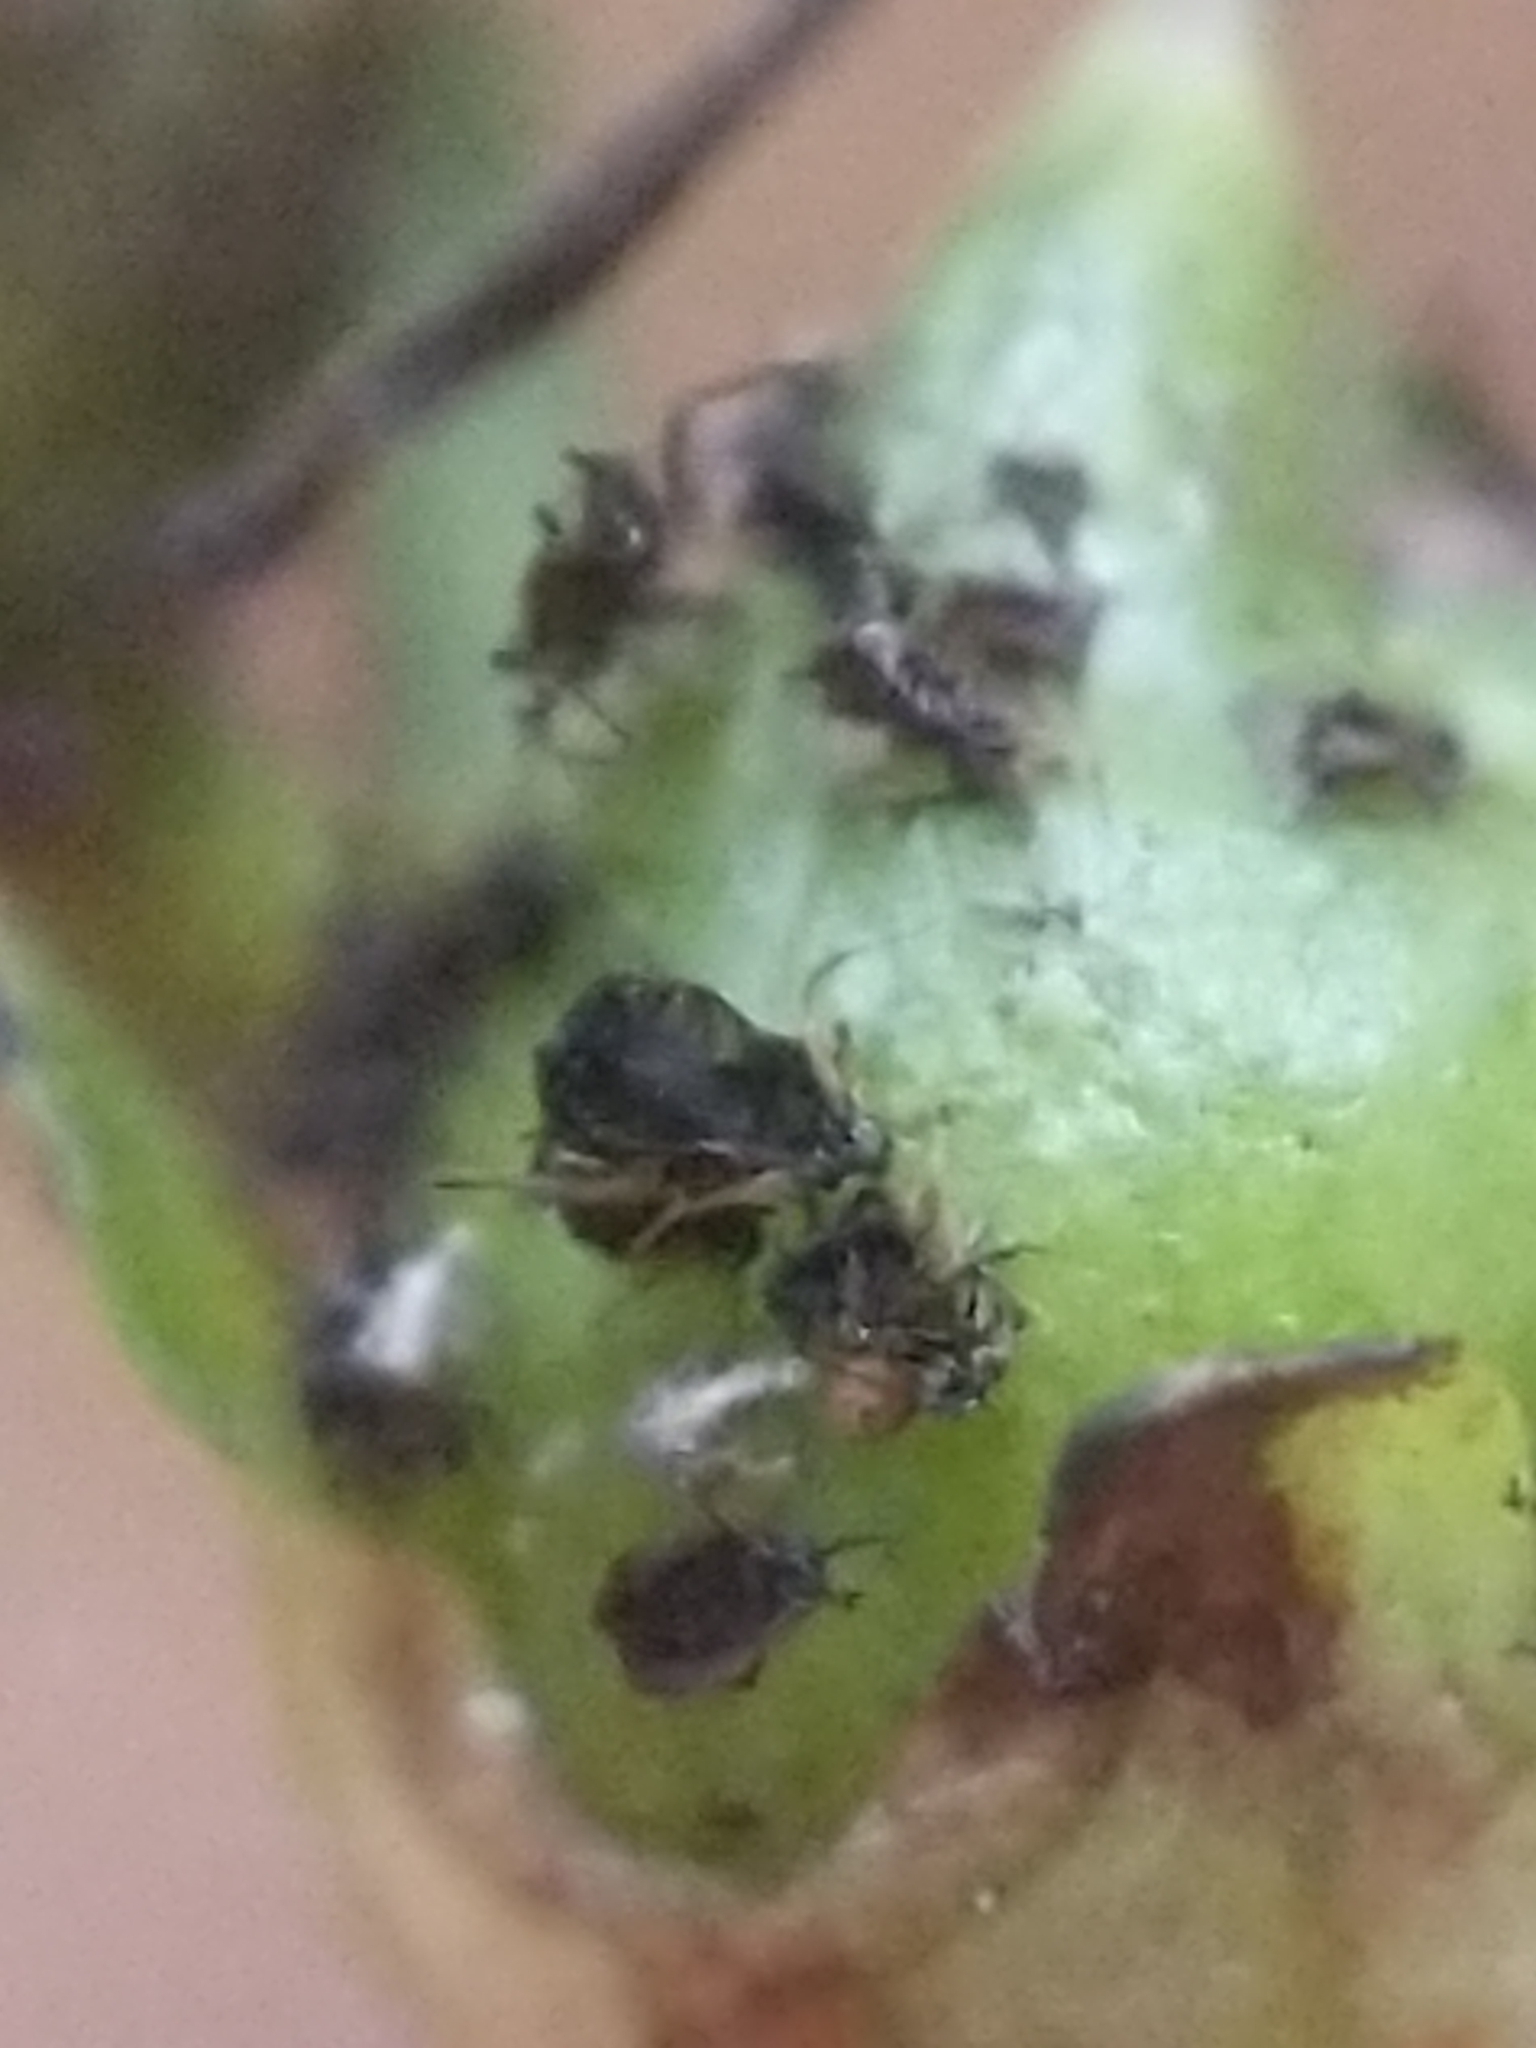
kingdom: Plantae
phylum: Tracheophyta
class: Magnoliopsida
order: Lamiales
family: Orobanchaceae
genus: Aureolaria
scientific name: Aureolaria levigata
